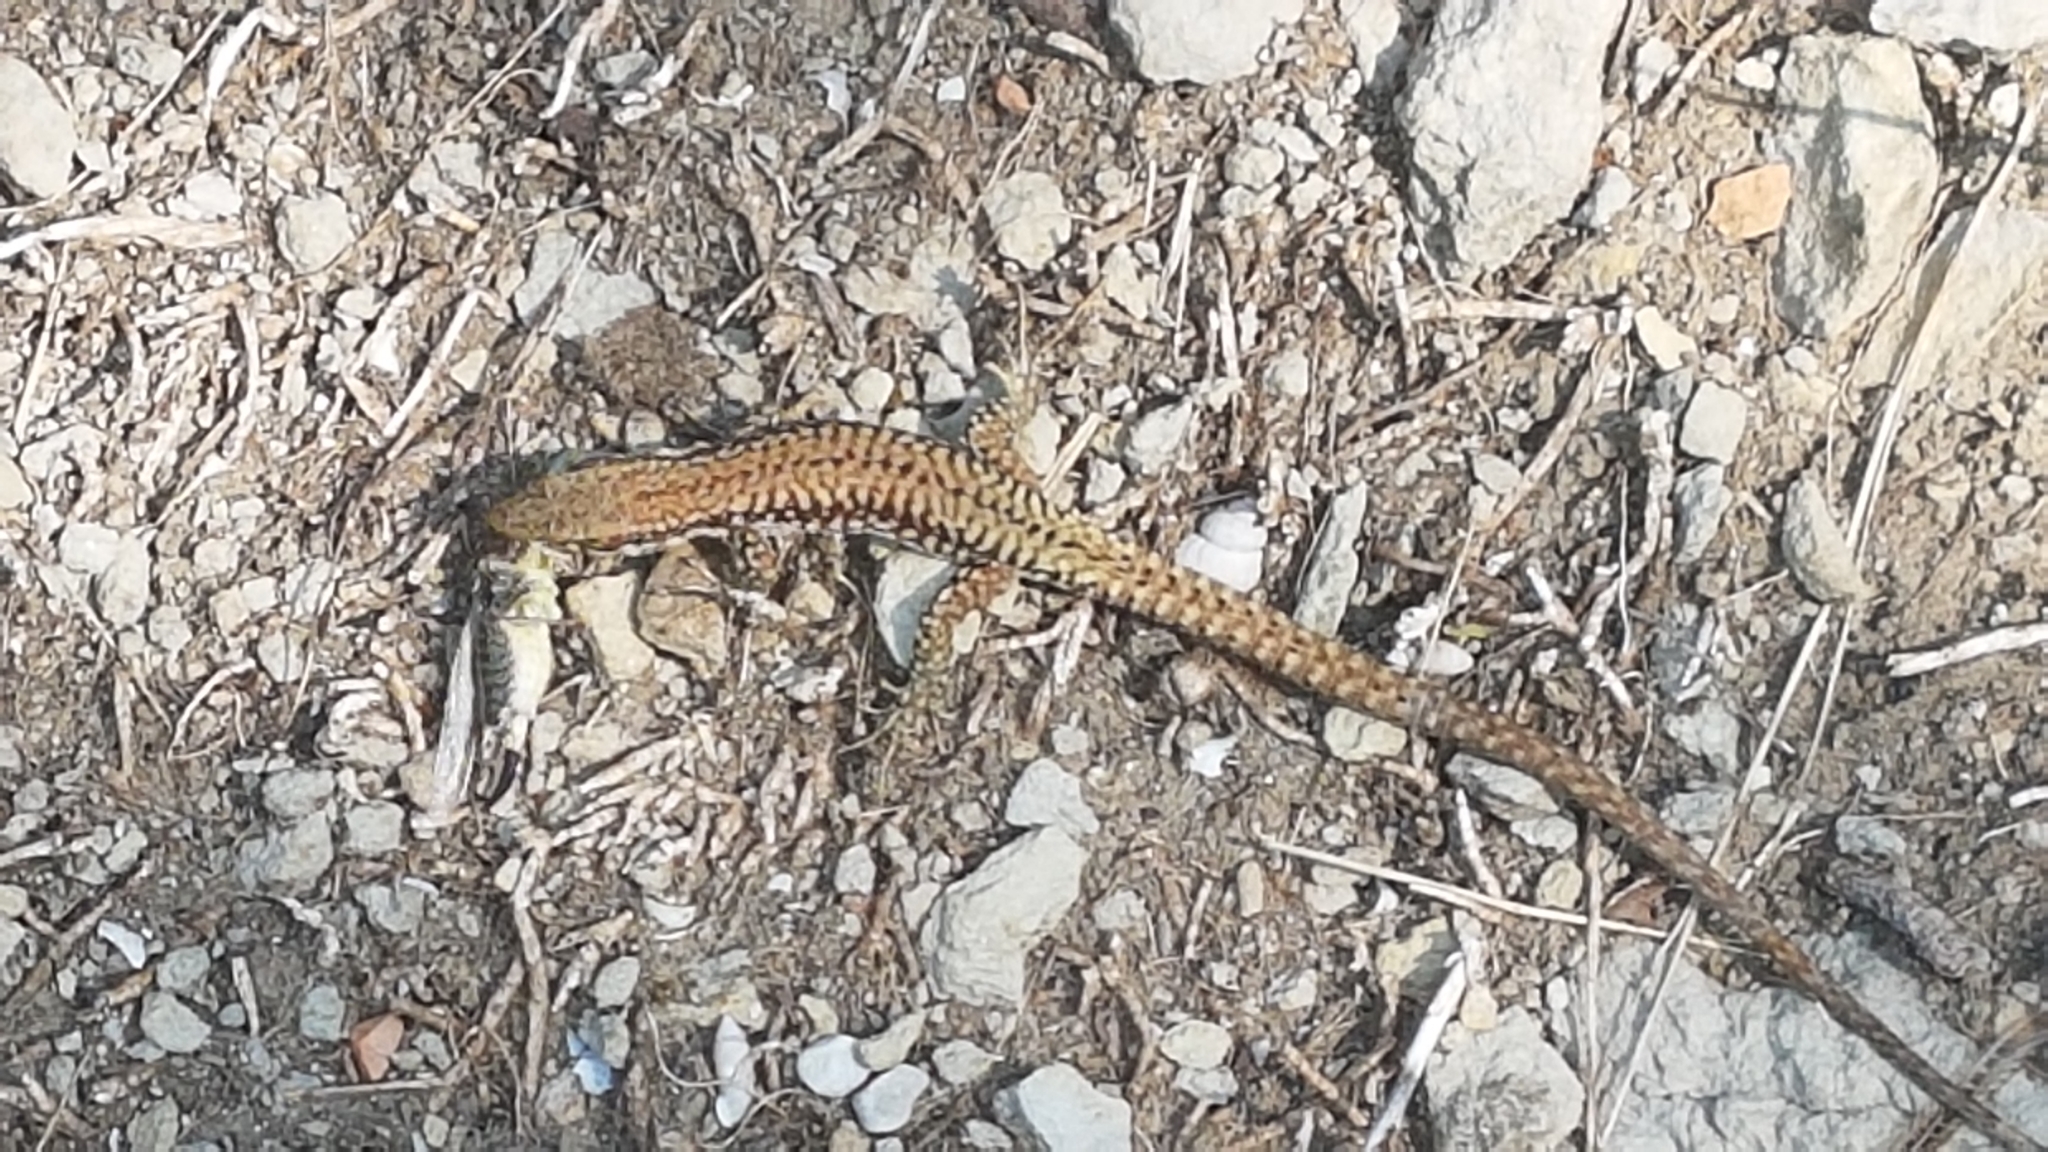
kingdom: Animalia
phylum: Chordata
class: Squamata
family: Lacertidae
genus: Podarcis
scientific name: Podarcis muralis
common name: Common wall lizard
